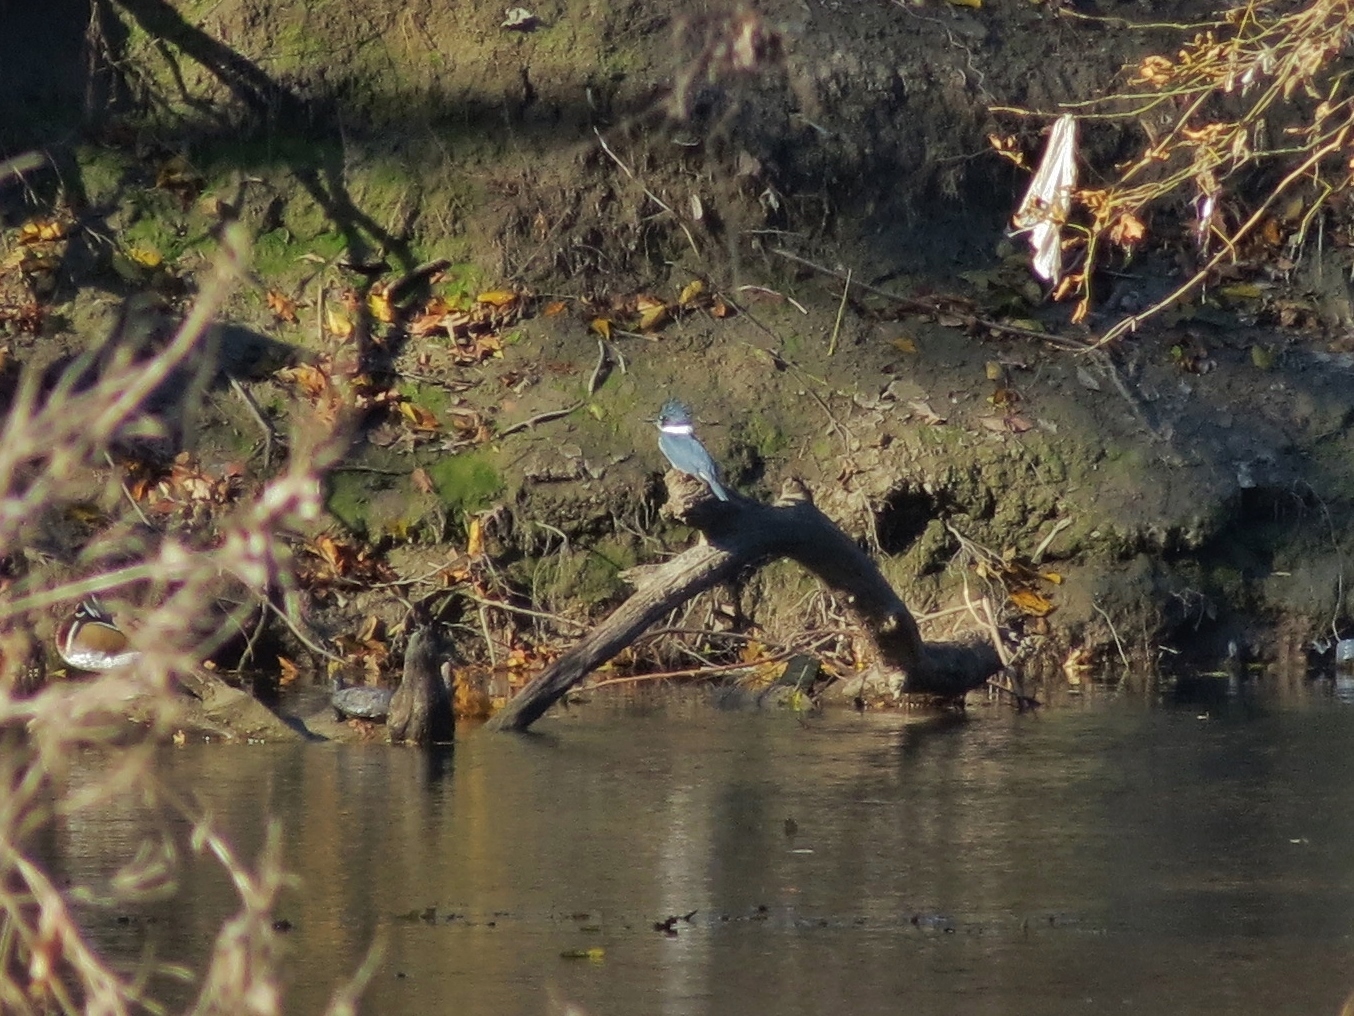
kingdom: Animalia
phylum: Chordata
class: Aves
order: Coraciiformes
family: Alcedinidae
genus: Megaceryle
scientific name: Megaceryle alcyon
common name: Belted kingfisher
